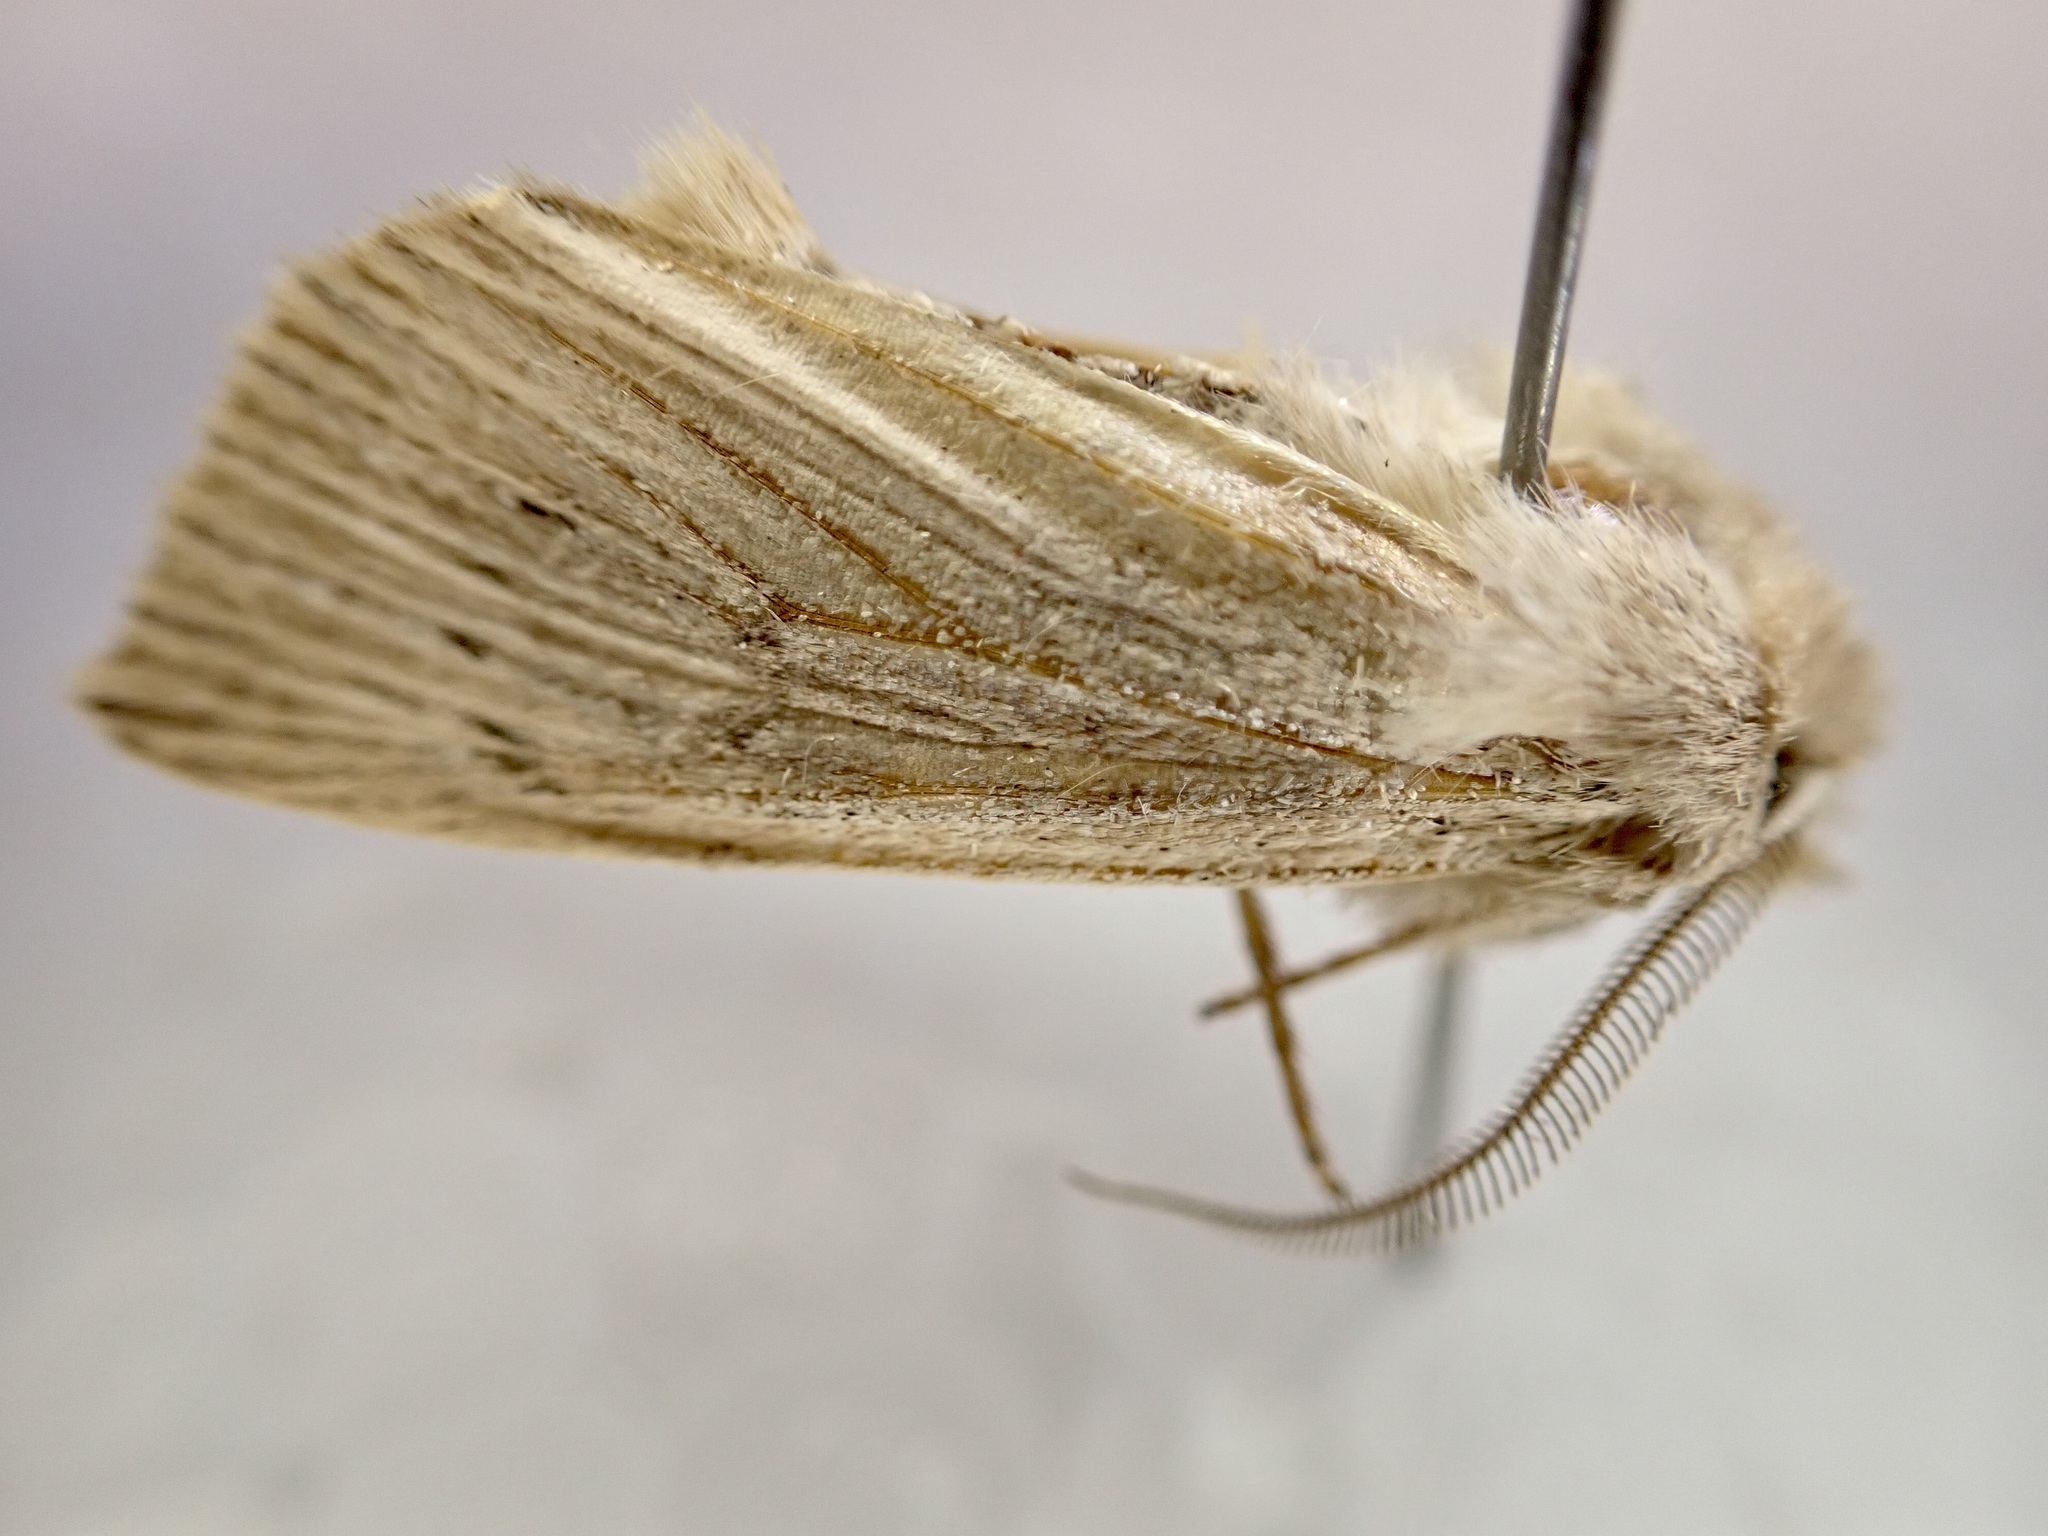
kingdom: Animalia
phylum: Arthropoda
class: Insecta
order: Lepidoptera
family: Noctuidae
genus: Ichneutica
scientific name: Ichneutica cornuta
